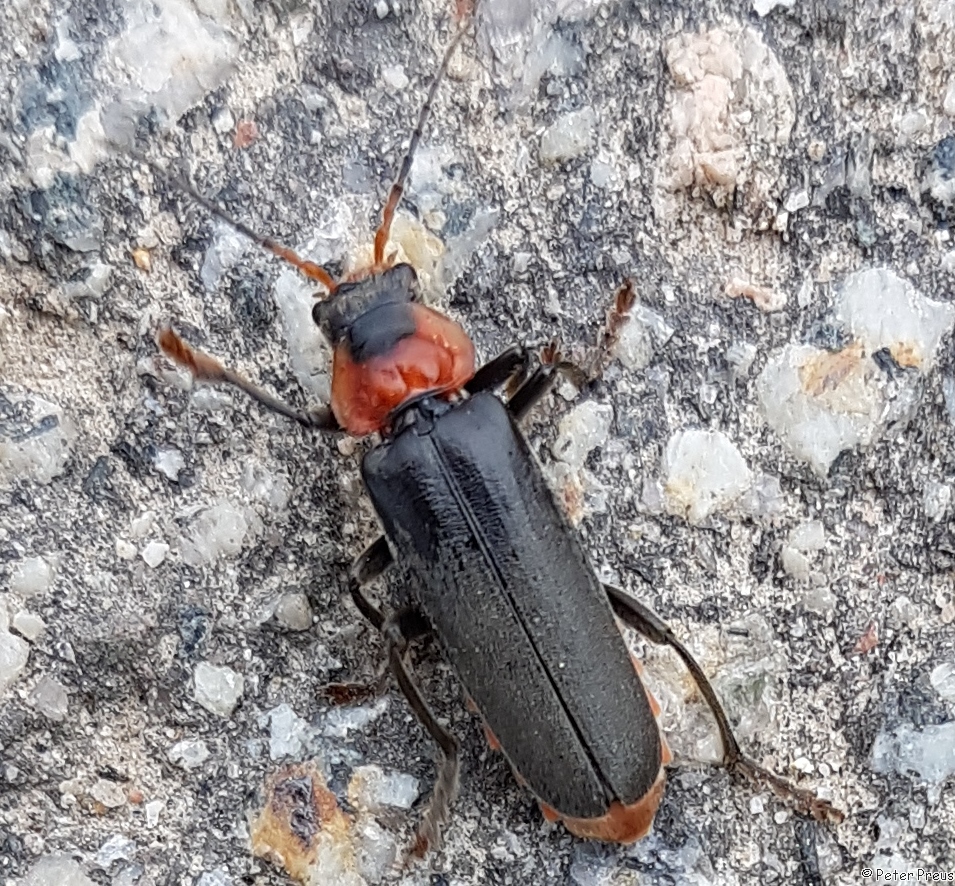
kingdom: Animalia
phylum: Arthropoda
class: Insecta
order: Coleoptera
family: Cantharidae
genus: Cantharis
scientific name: Cantharis fusca
